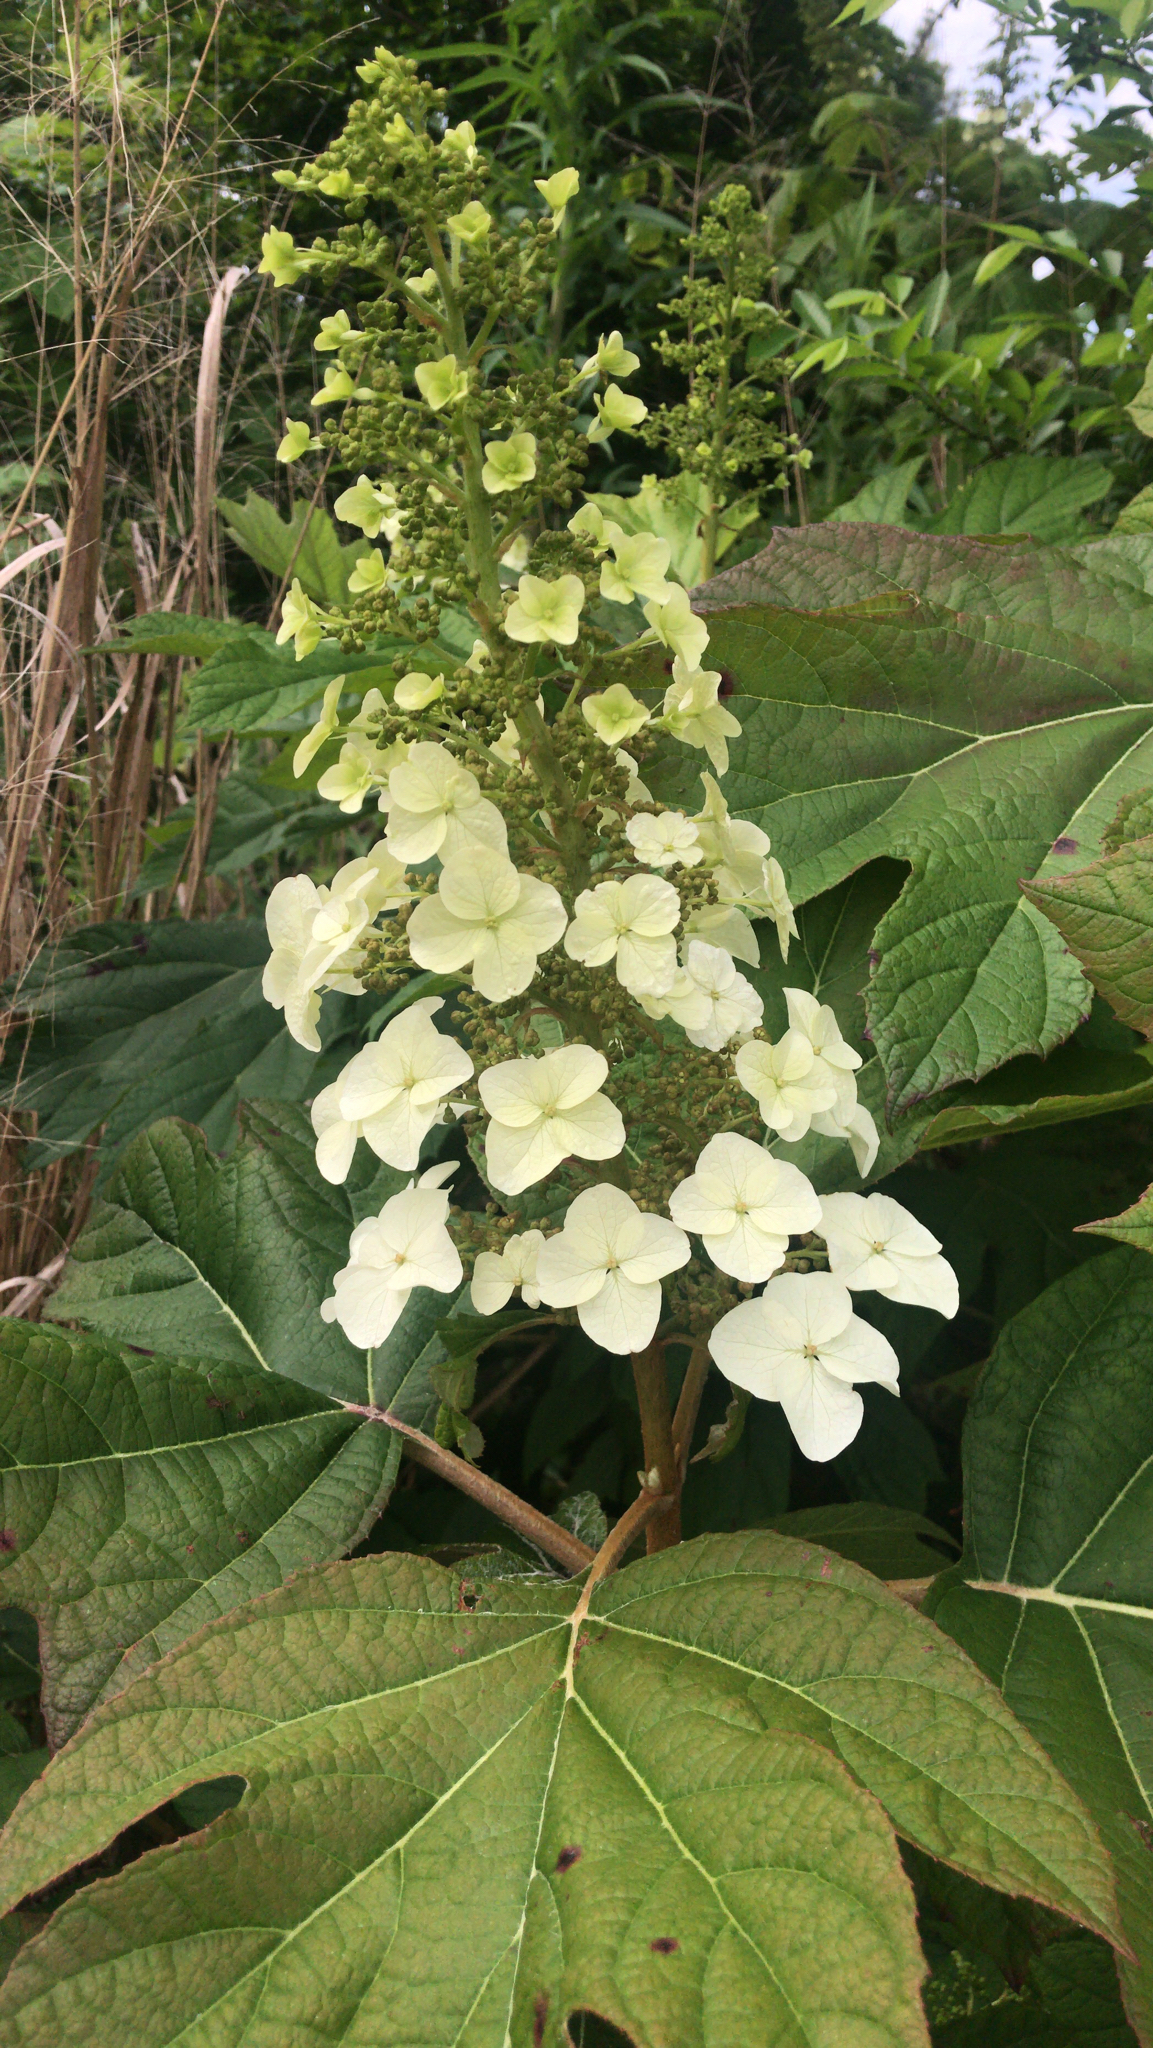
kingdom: Plantae
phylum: Tracheophyta
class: Magnoliopsida
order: Cornales
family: Hydrangeaceae
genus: Hydrangea
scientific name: Hydrangea quercifolia
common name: Oak-leaf hydrangea
